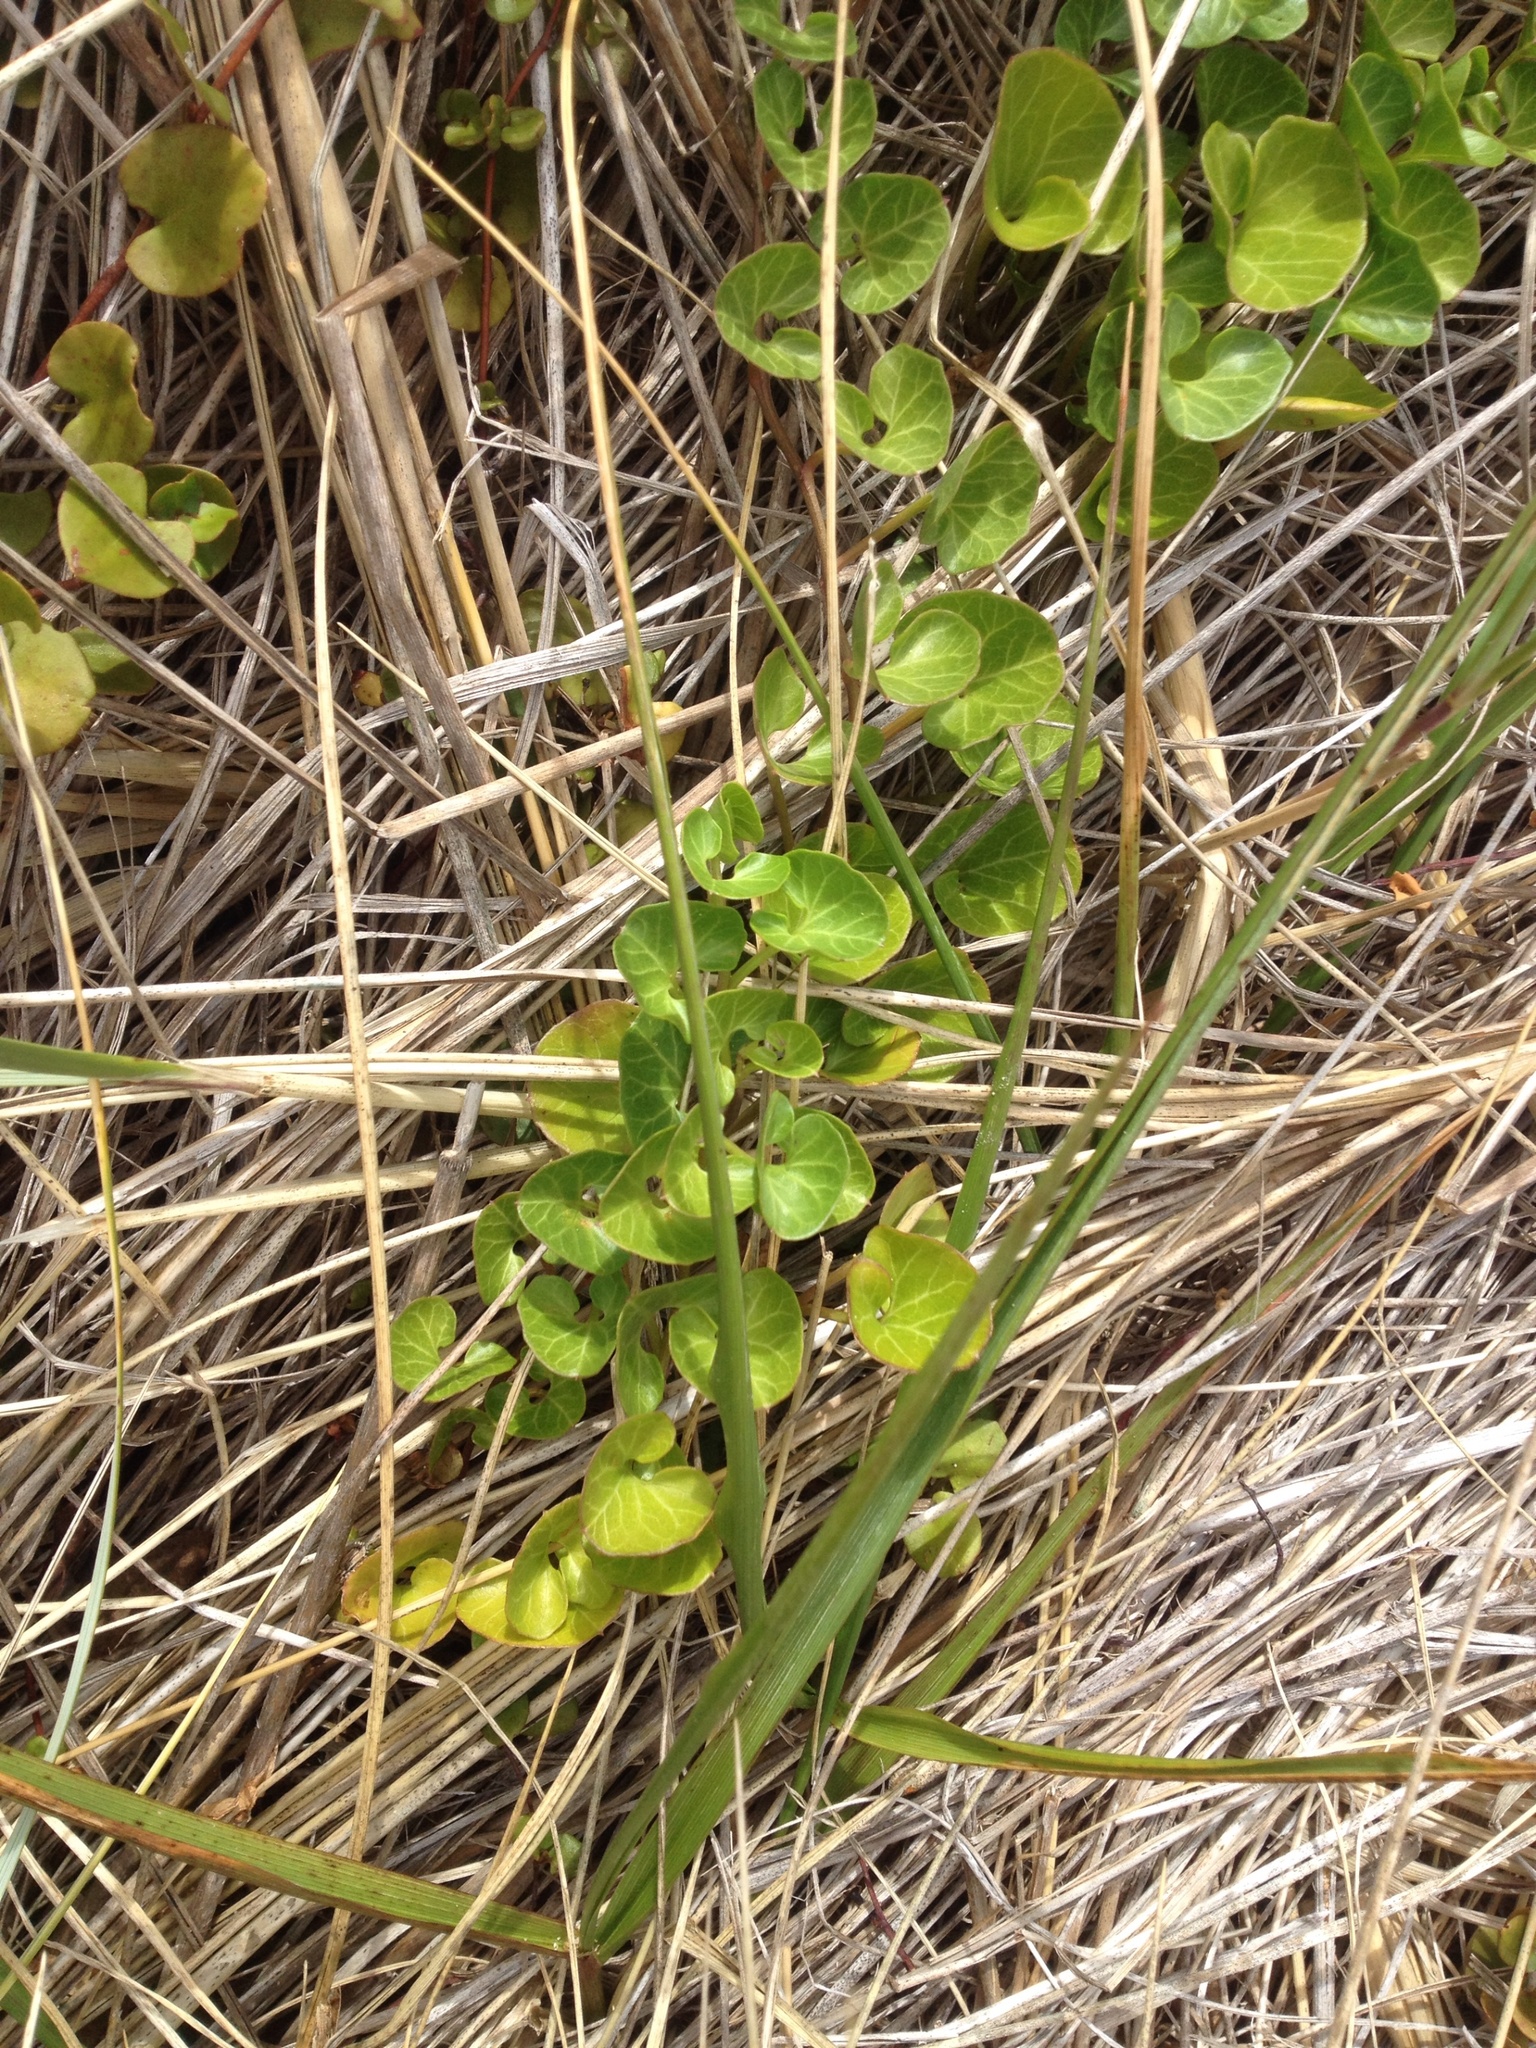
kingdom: Plantae
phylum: Tracheophyta
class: Magnoliopsida
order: Solanales
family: Convolvulaceae
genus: Calystegia
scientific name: Calystegia soldanella
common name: Sea bindweed
